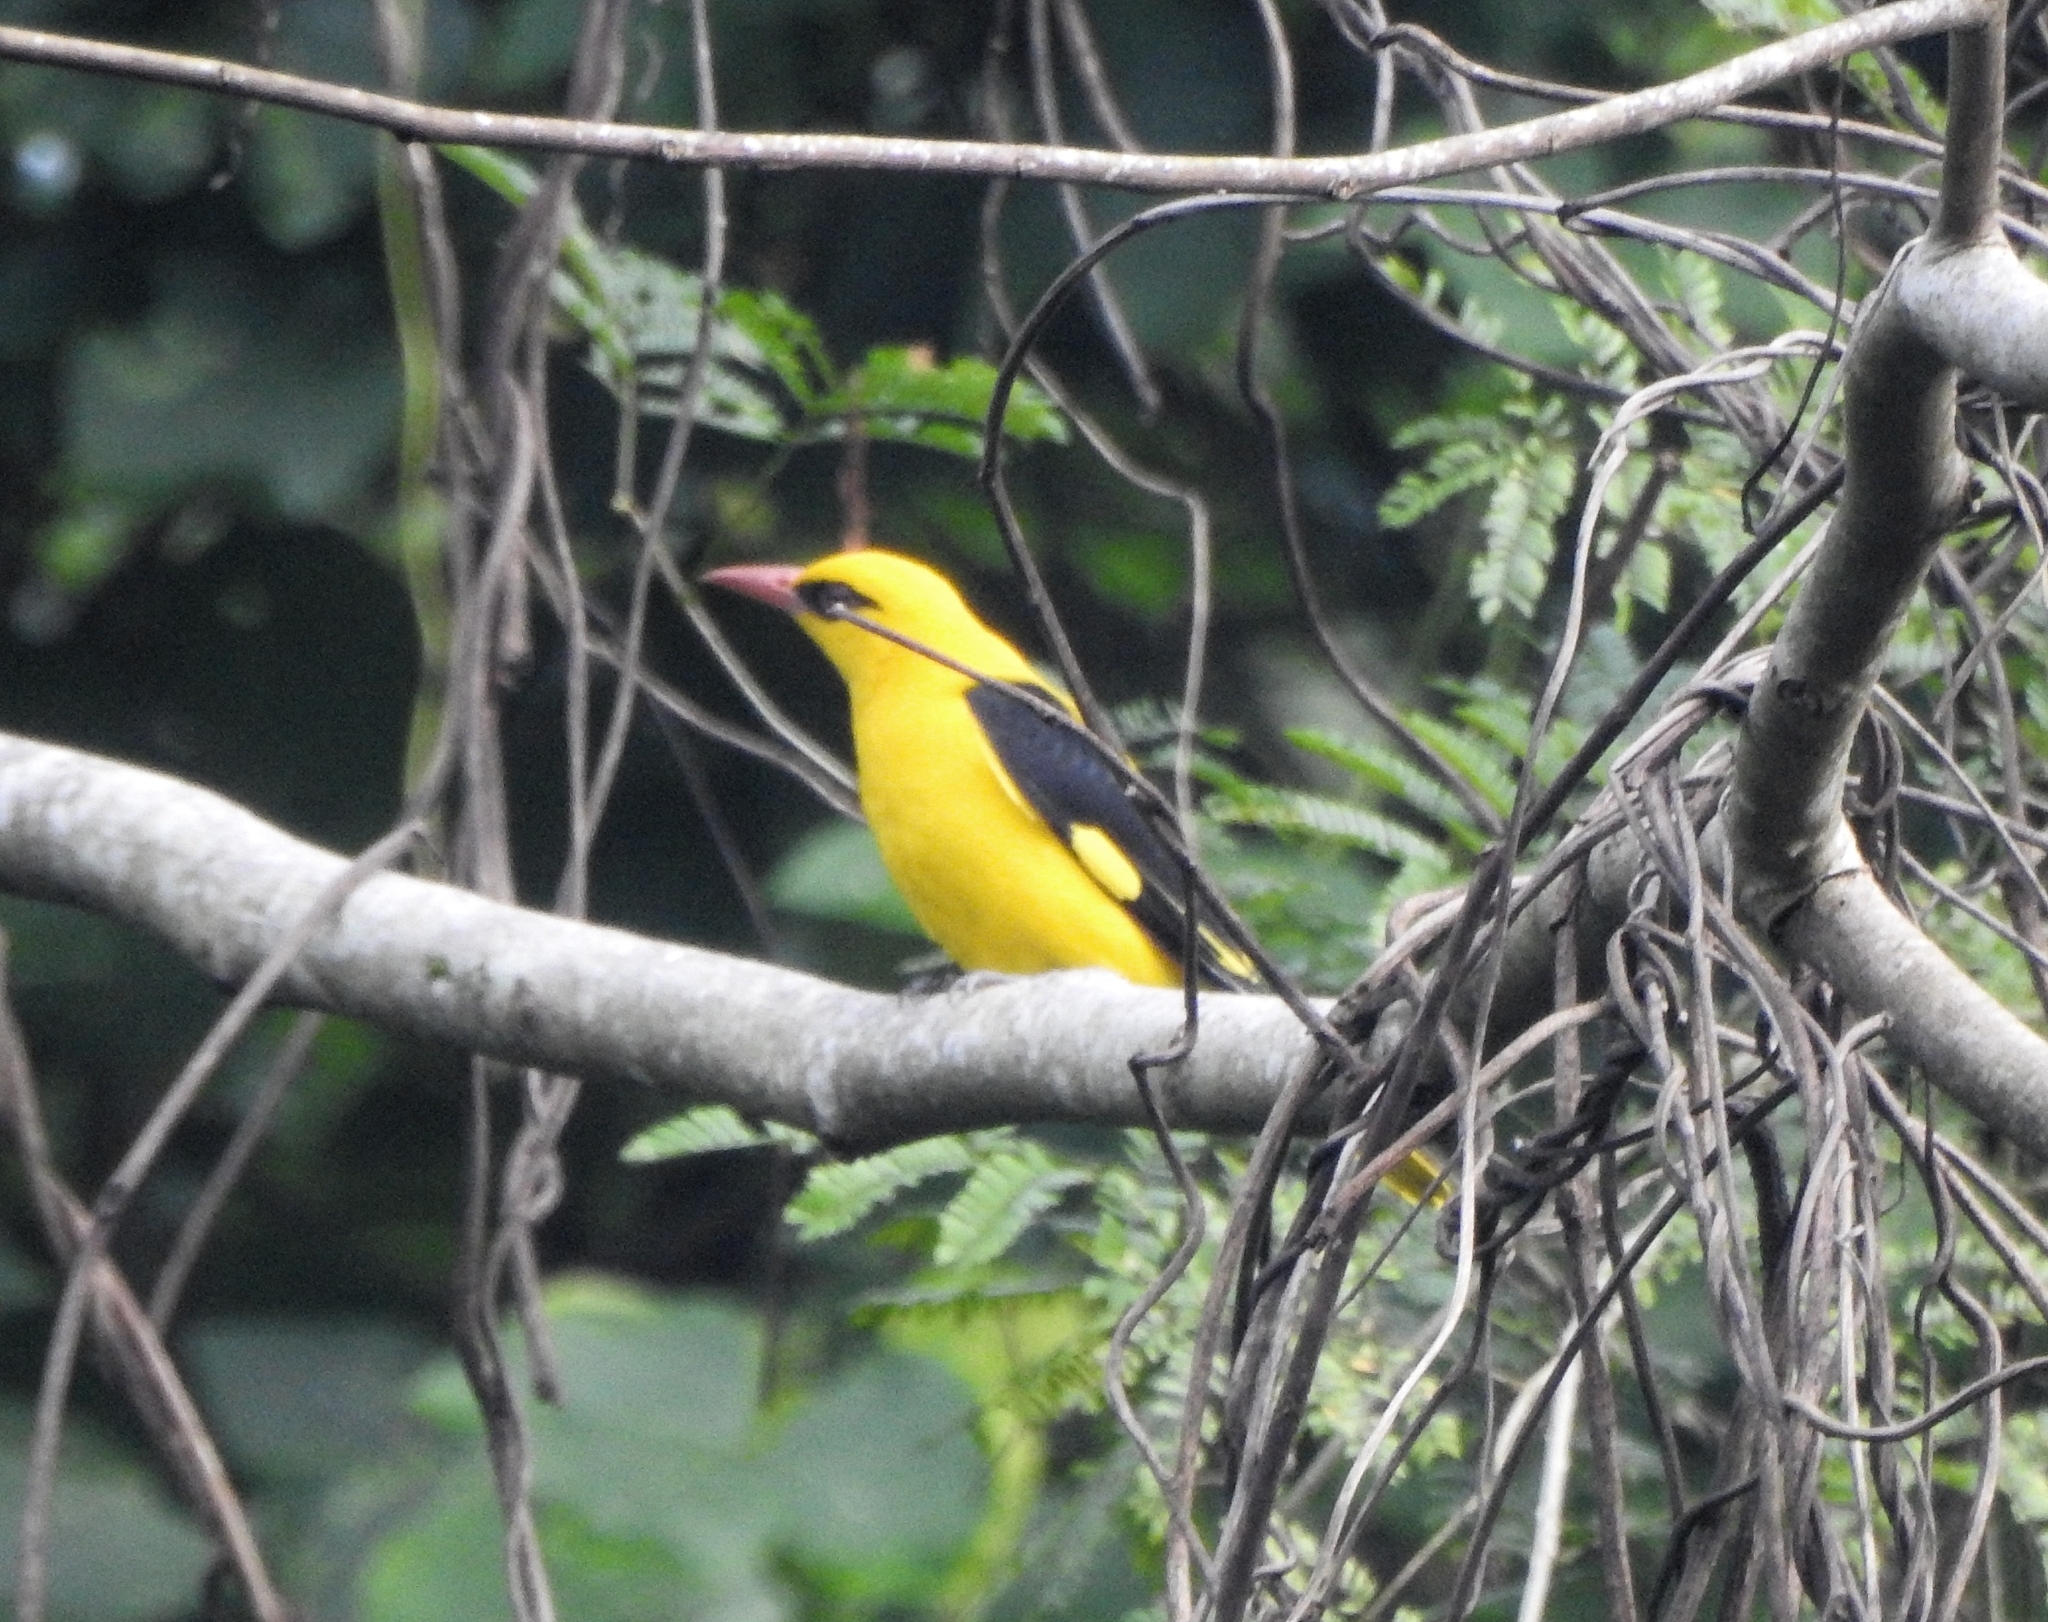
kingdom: Animalia
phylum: Chordata
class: Aves
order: Passeriformes
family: Oriolidae
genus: Oriolus
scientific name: Oriolus kundoo
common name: Indian golden oriole
